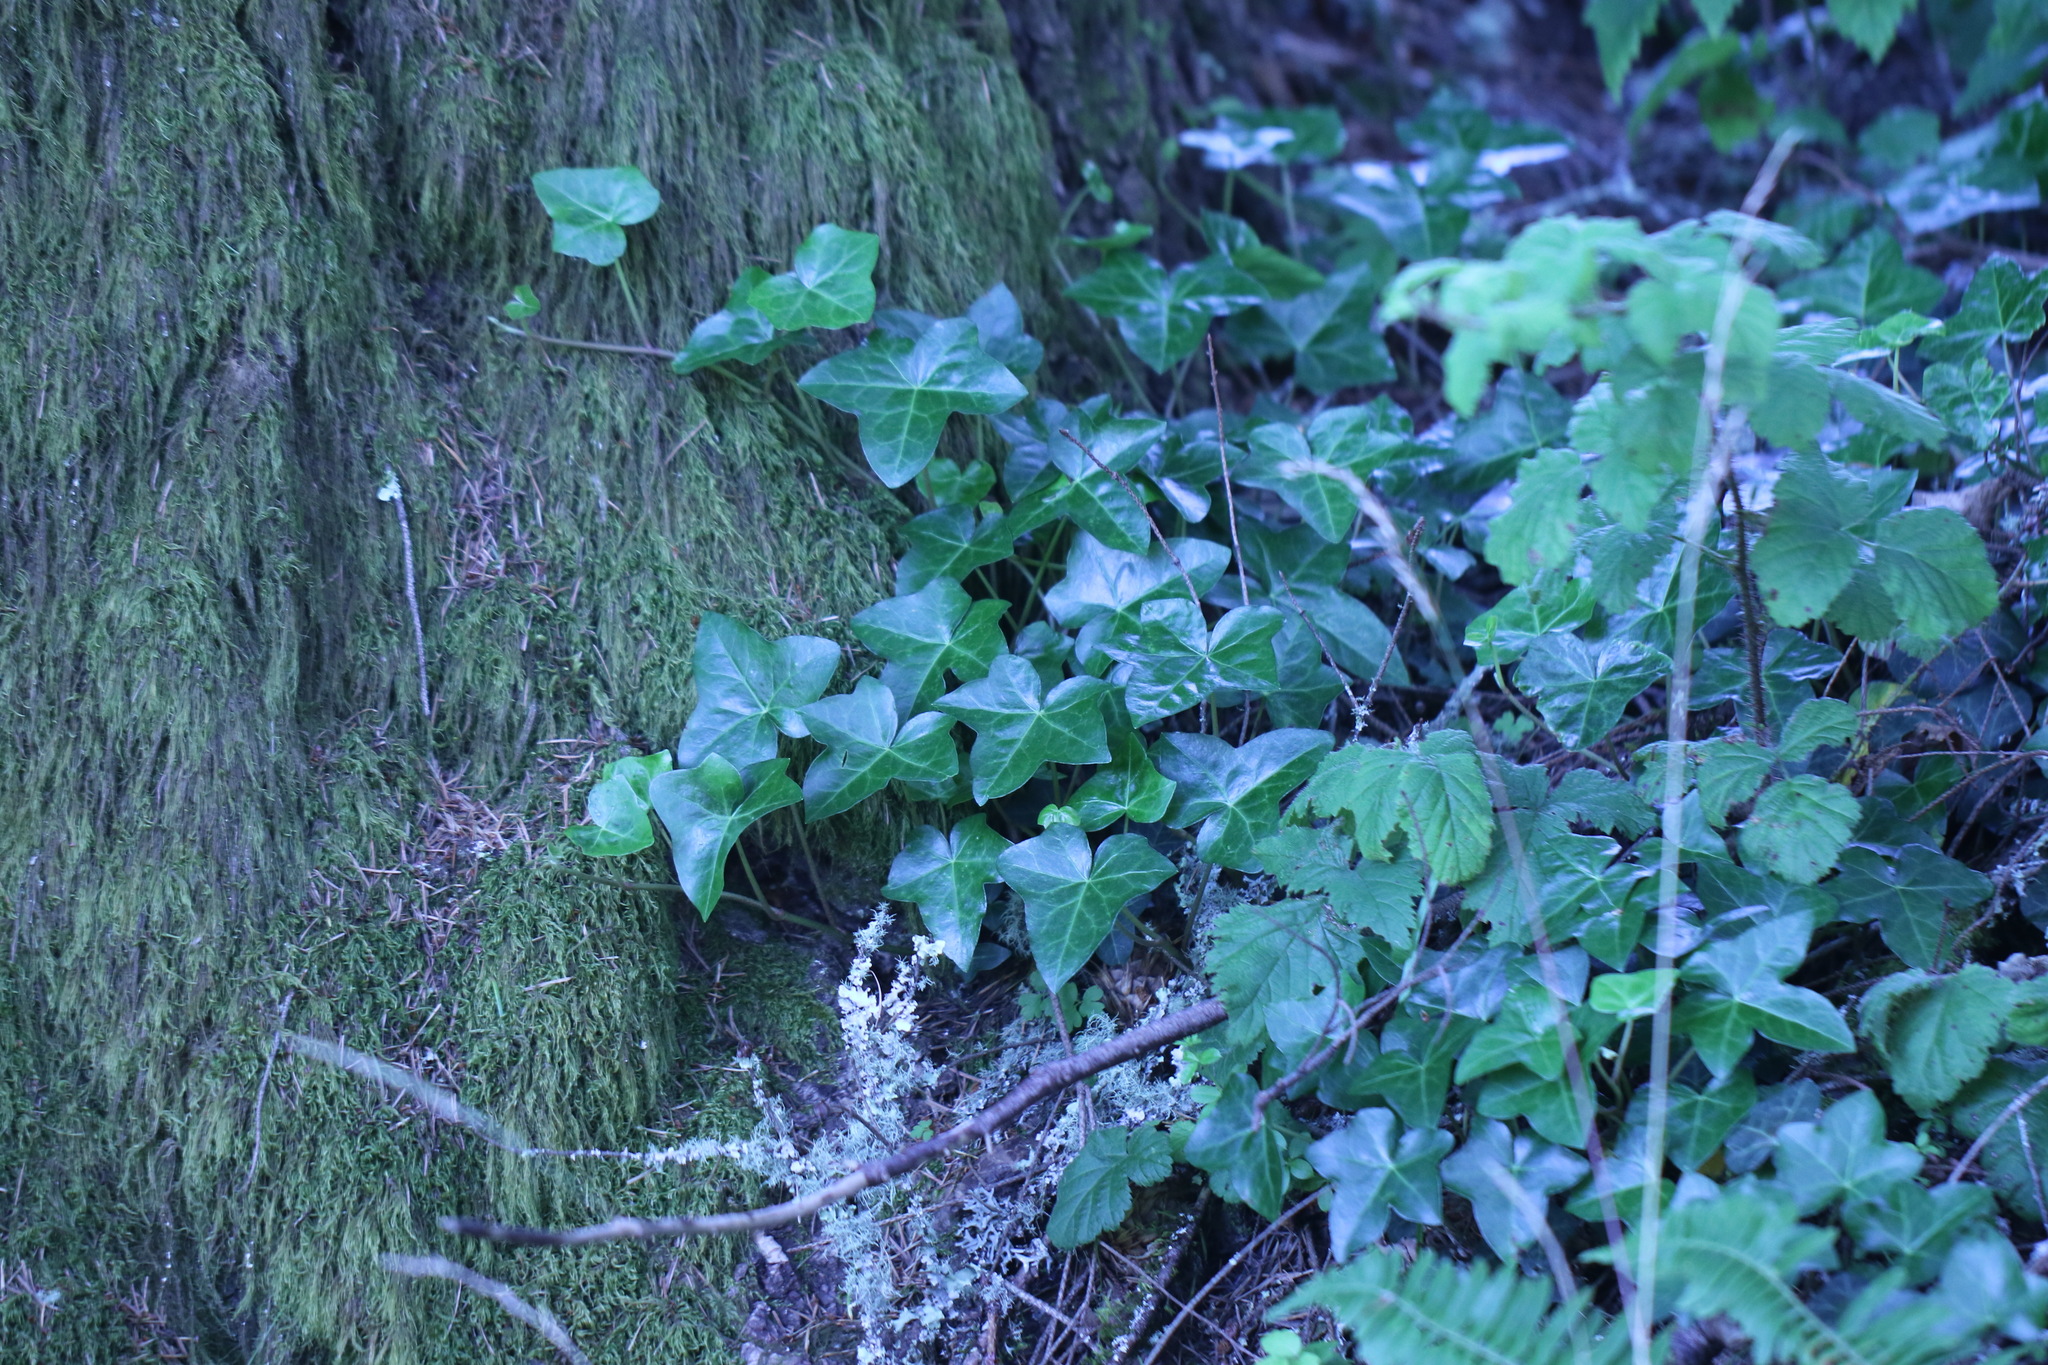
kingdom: Plantae
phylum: Tracheophyta
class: Magnoliopsida
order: Apiales
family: Araliaceae
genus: Hedera
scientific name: Hedera helix
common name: Ivy
